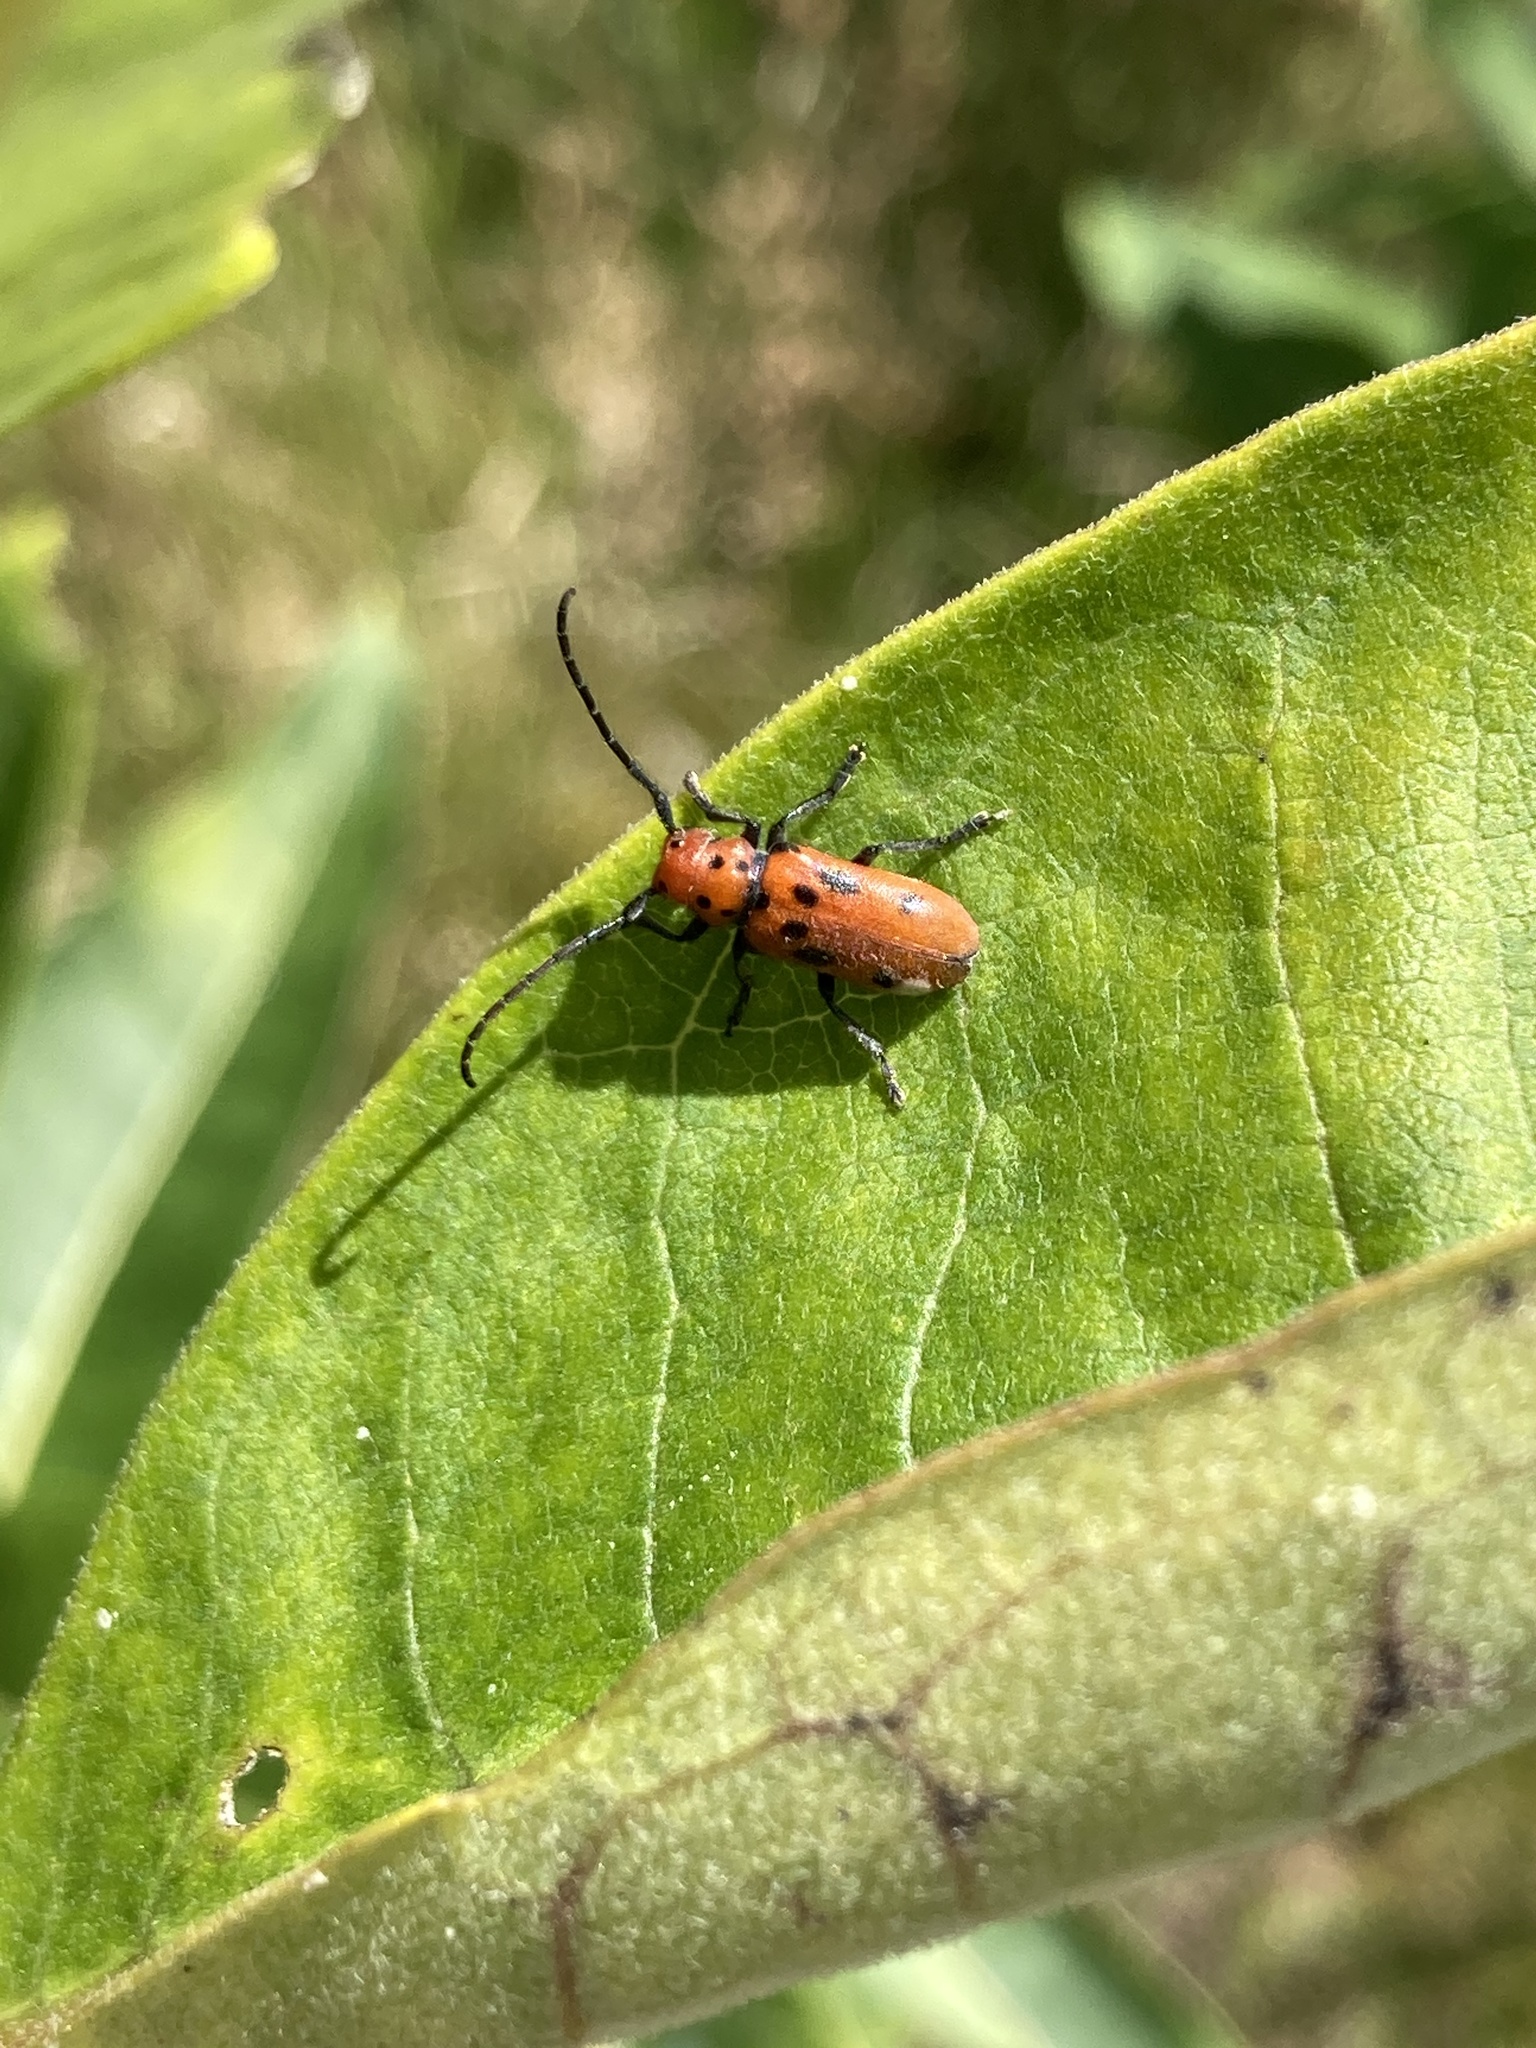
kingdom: Animalia
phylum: Arthropoda
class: Insecta
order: Coleoptera
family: Cerambycidae
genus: Tetraopes
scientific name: Tetraopes tetrophthalmus
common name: Red milkweed beetle
